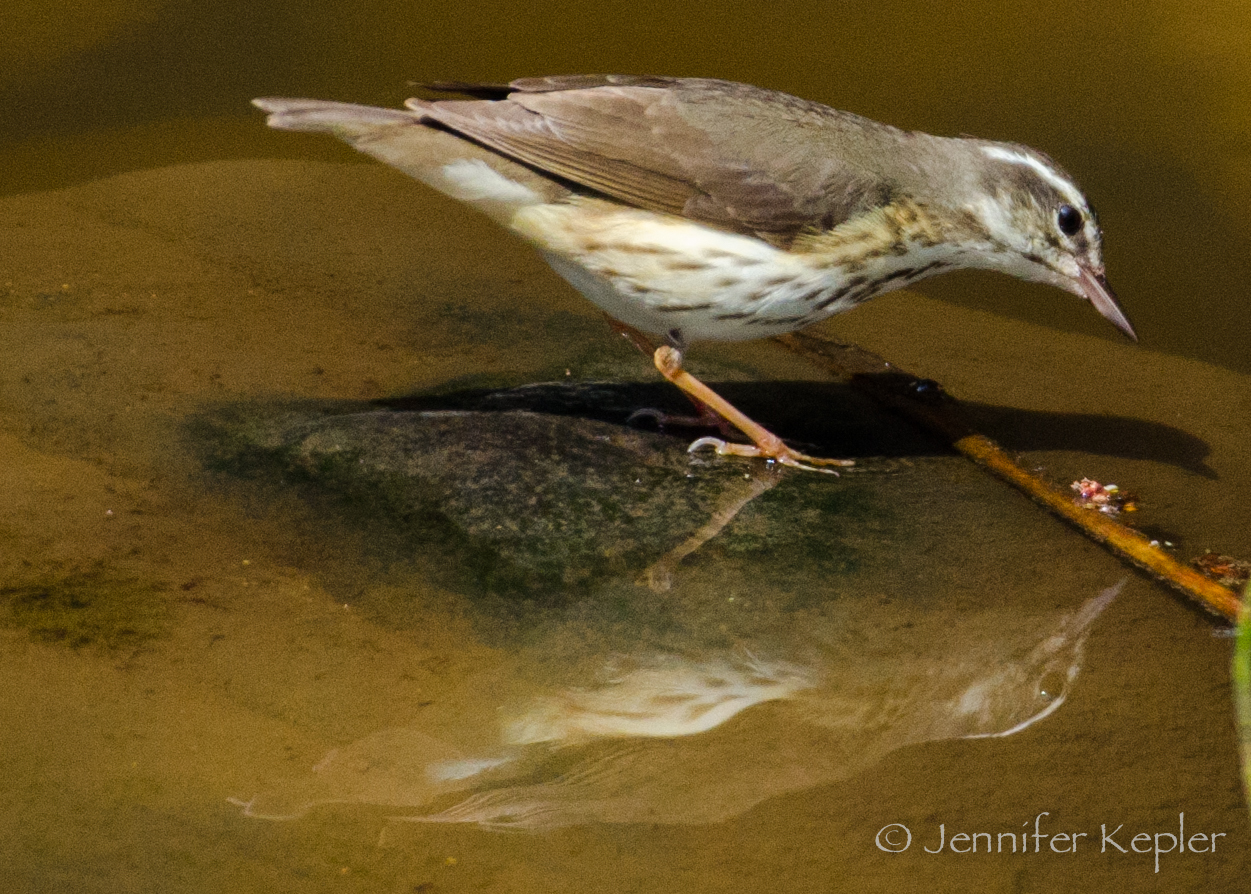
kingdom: Animalia
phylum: Chordata
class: Aves
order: Passeriformes
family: Parulidae
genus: Parkesia
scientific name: Parkesia motacilla
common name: Louisiana waterthrush
